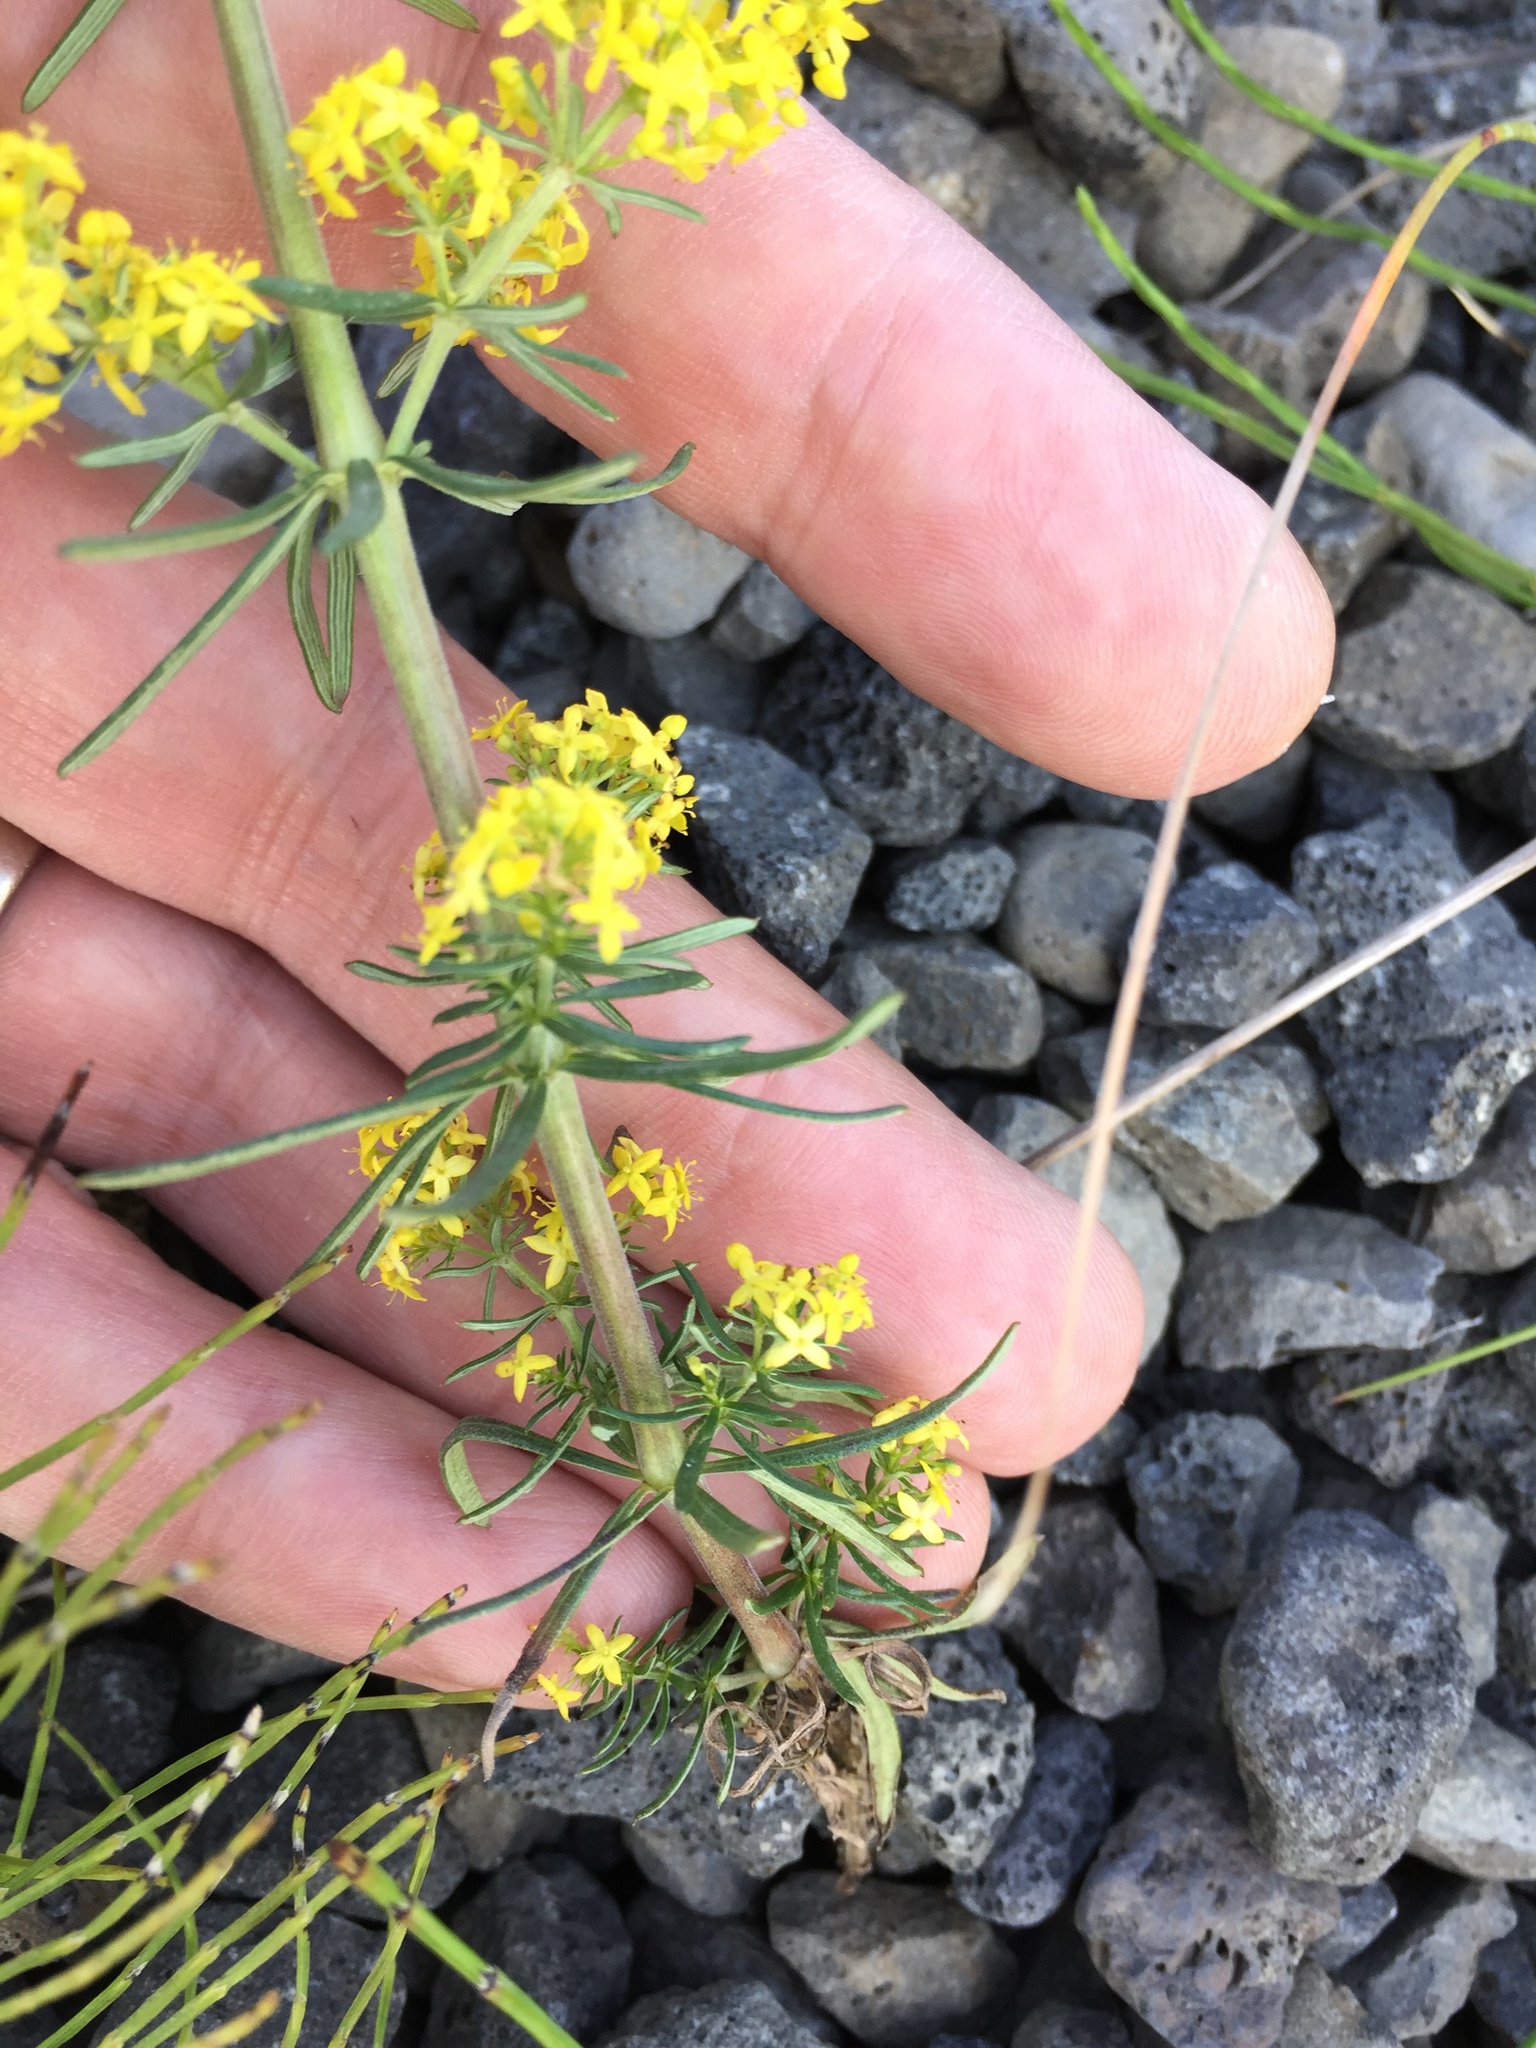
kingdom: Plantae
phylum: Tracheophyta
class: Magnoliopsida
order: Gentianales
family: Rubiaceae
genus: Galium
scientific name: Galium verum
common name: Lady's bedstraw
